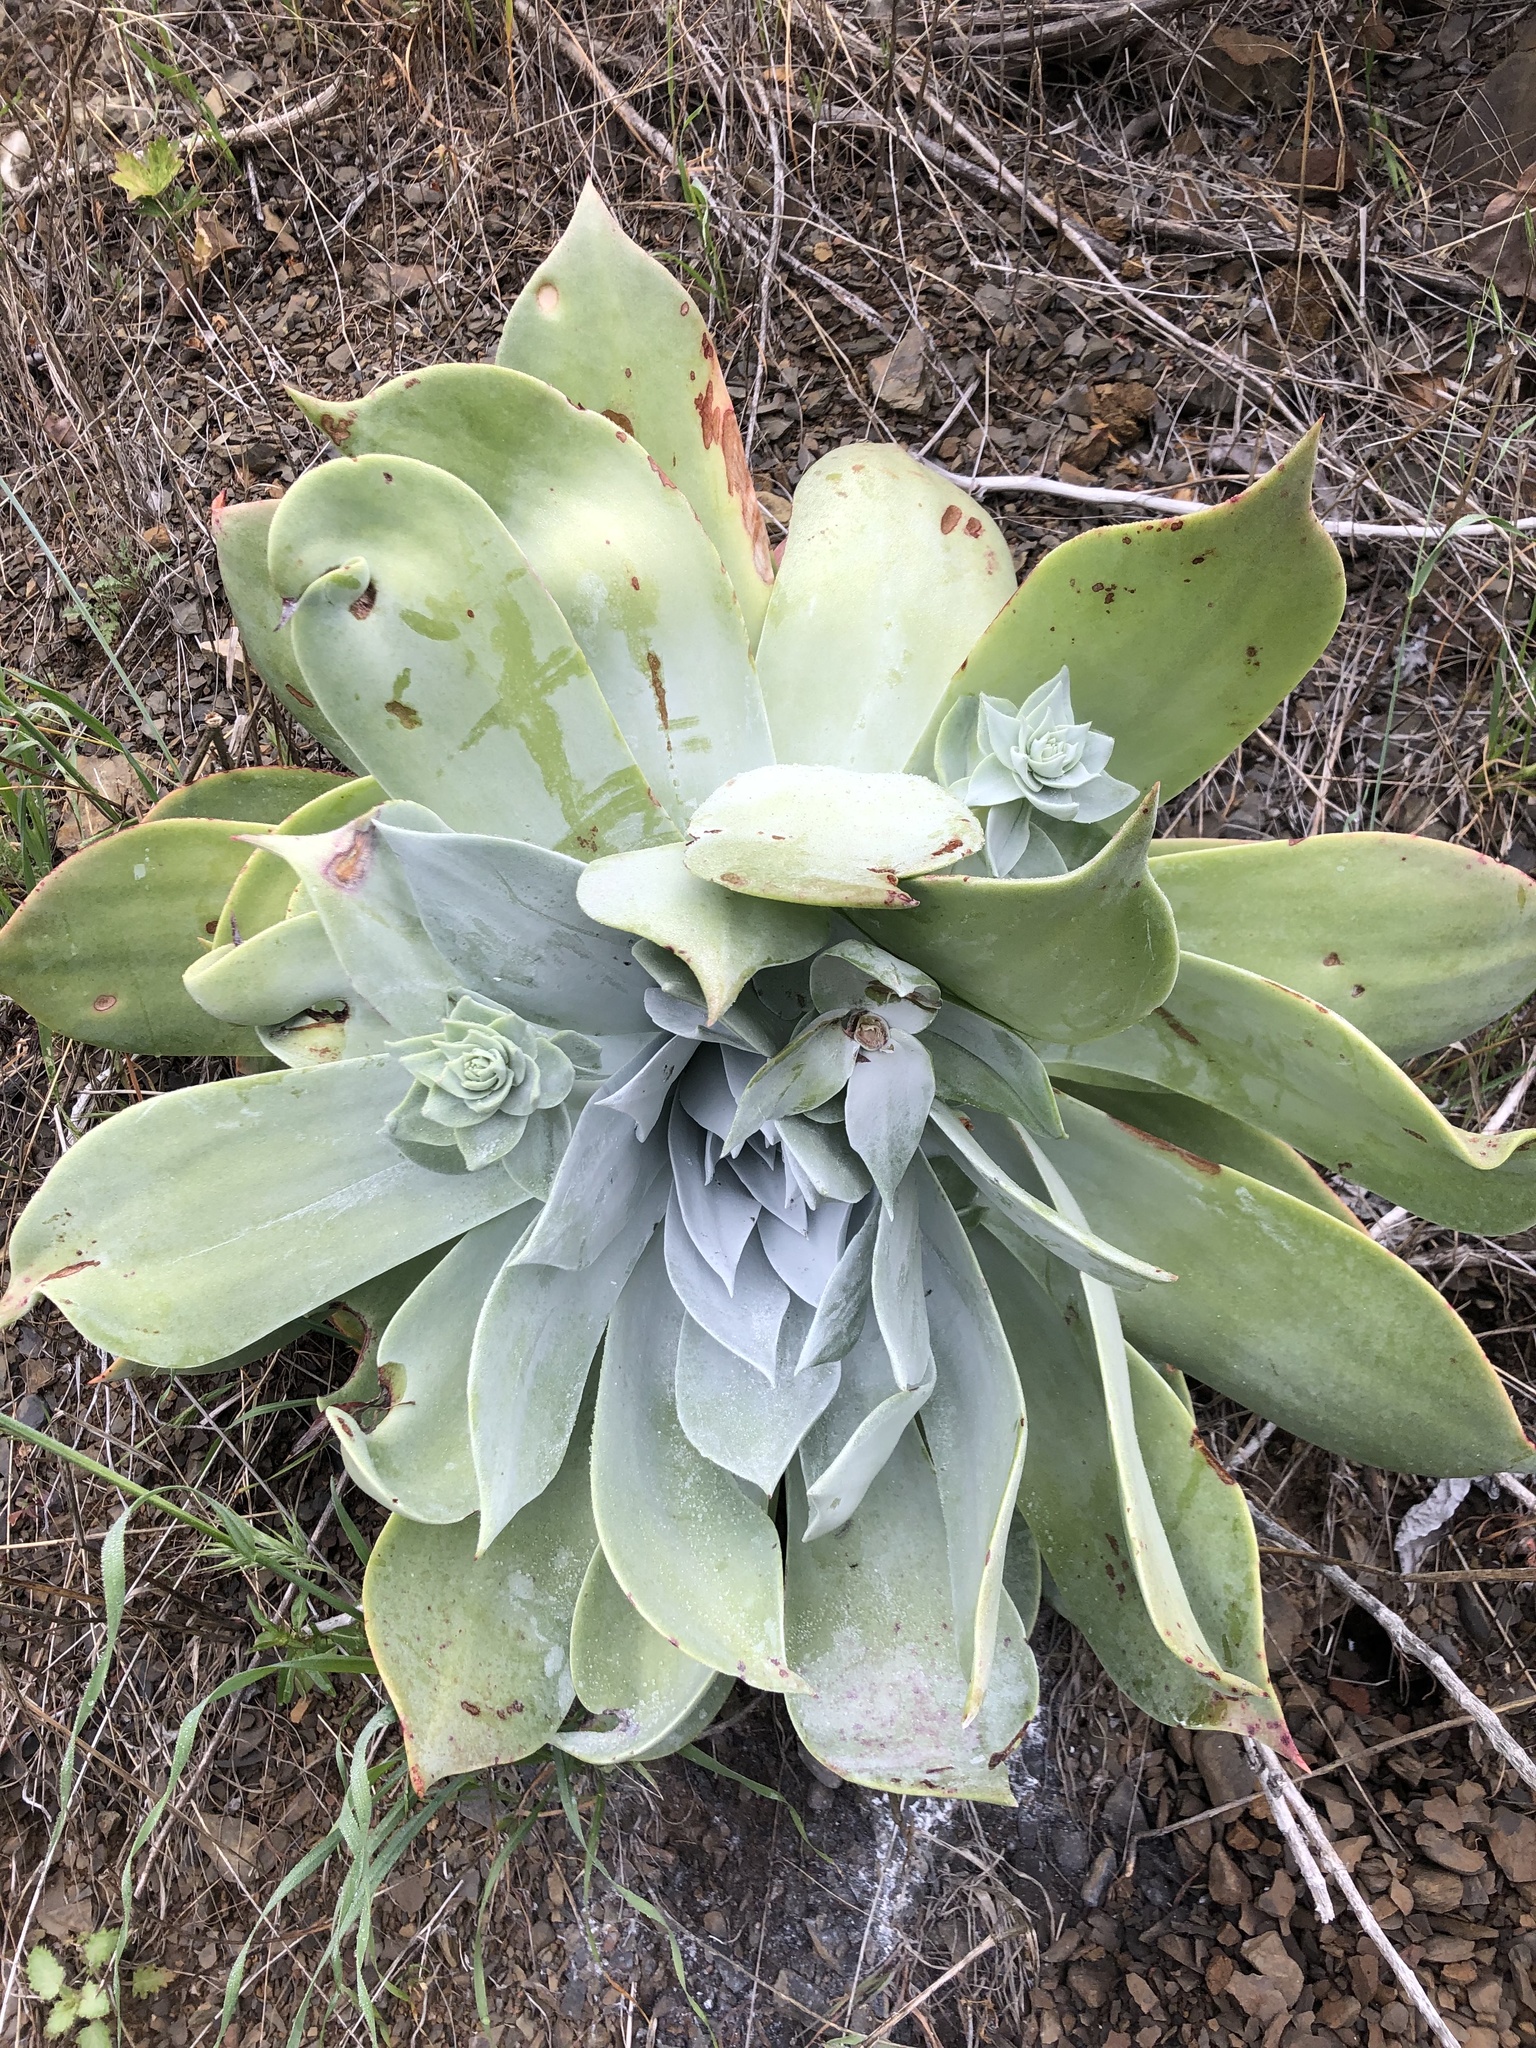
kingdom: Plantae
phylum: Tracheophyta
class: Magnoliopsida
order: Saxifragales
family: Crassulaceae
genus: Dudleya
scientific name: Dudleya pulverulenta
